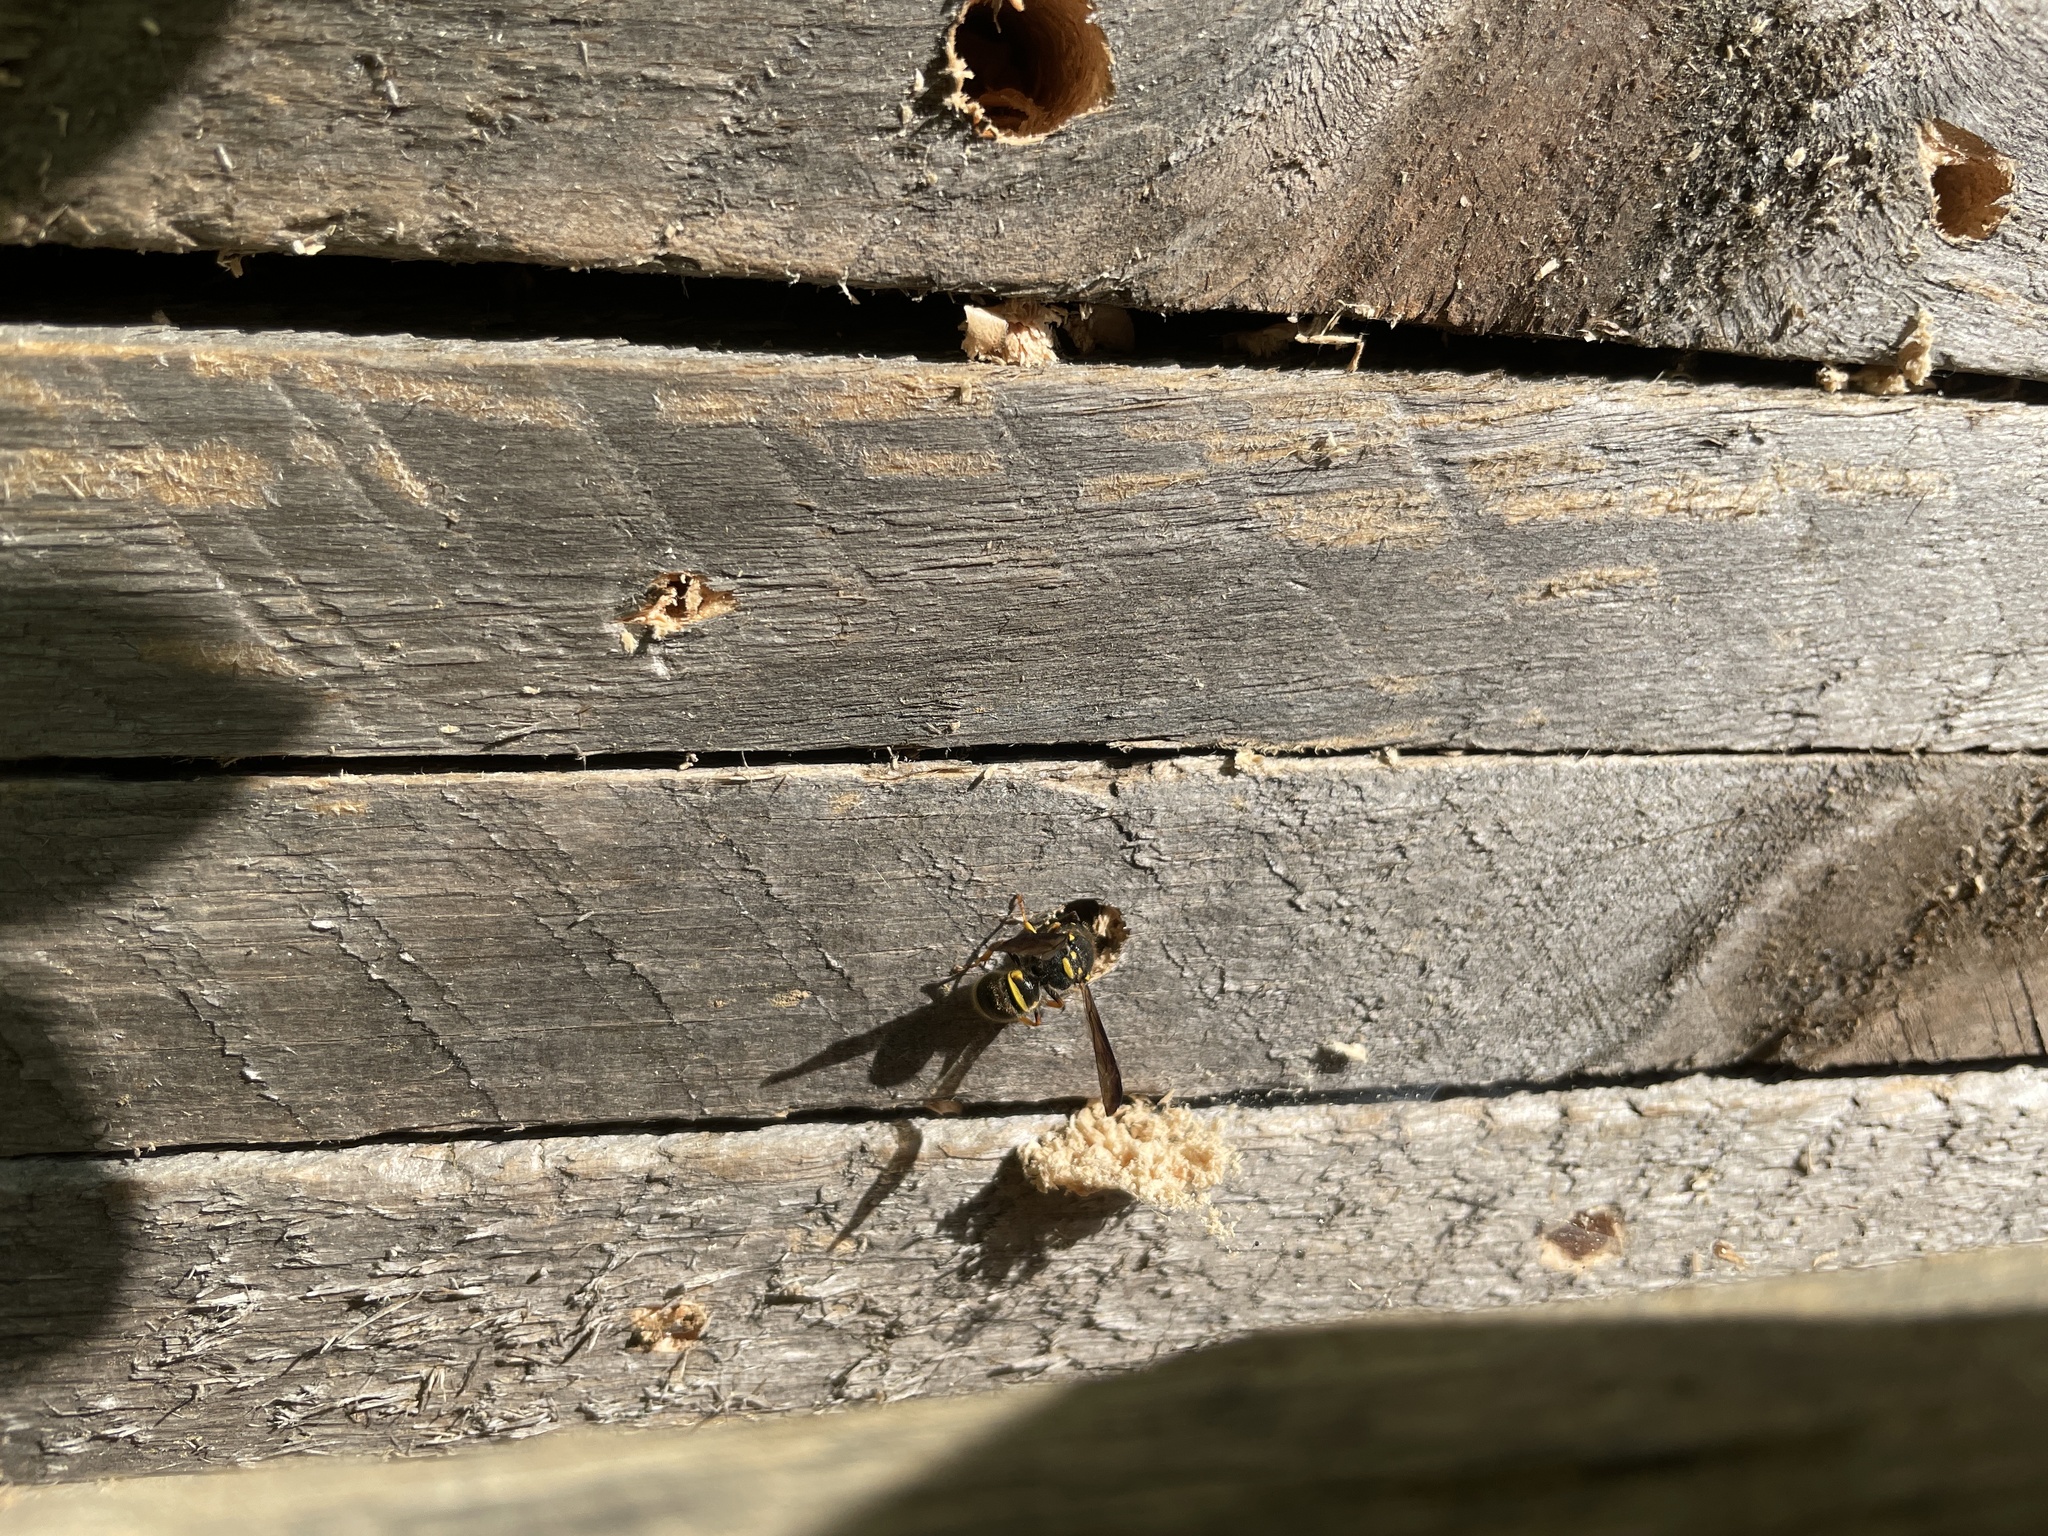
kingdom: Animalia
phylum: Arthropoda
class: Insecta
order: Hymenoptera
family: Vespidae
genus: Ancistrocerus
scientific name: Ancistrocerus campestris
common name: Smiling mason wasp
